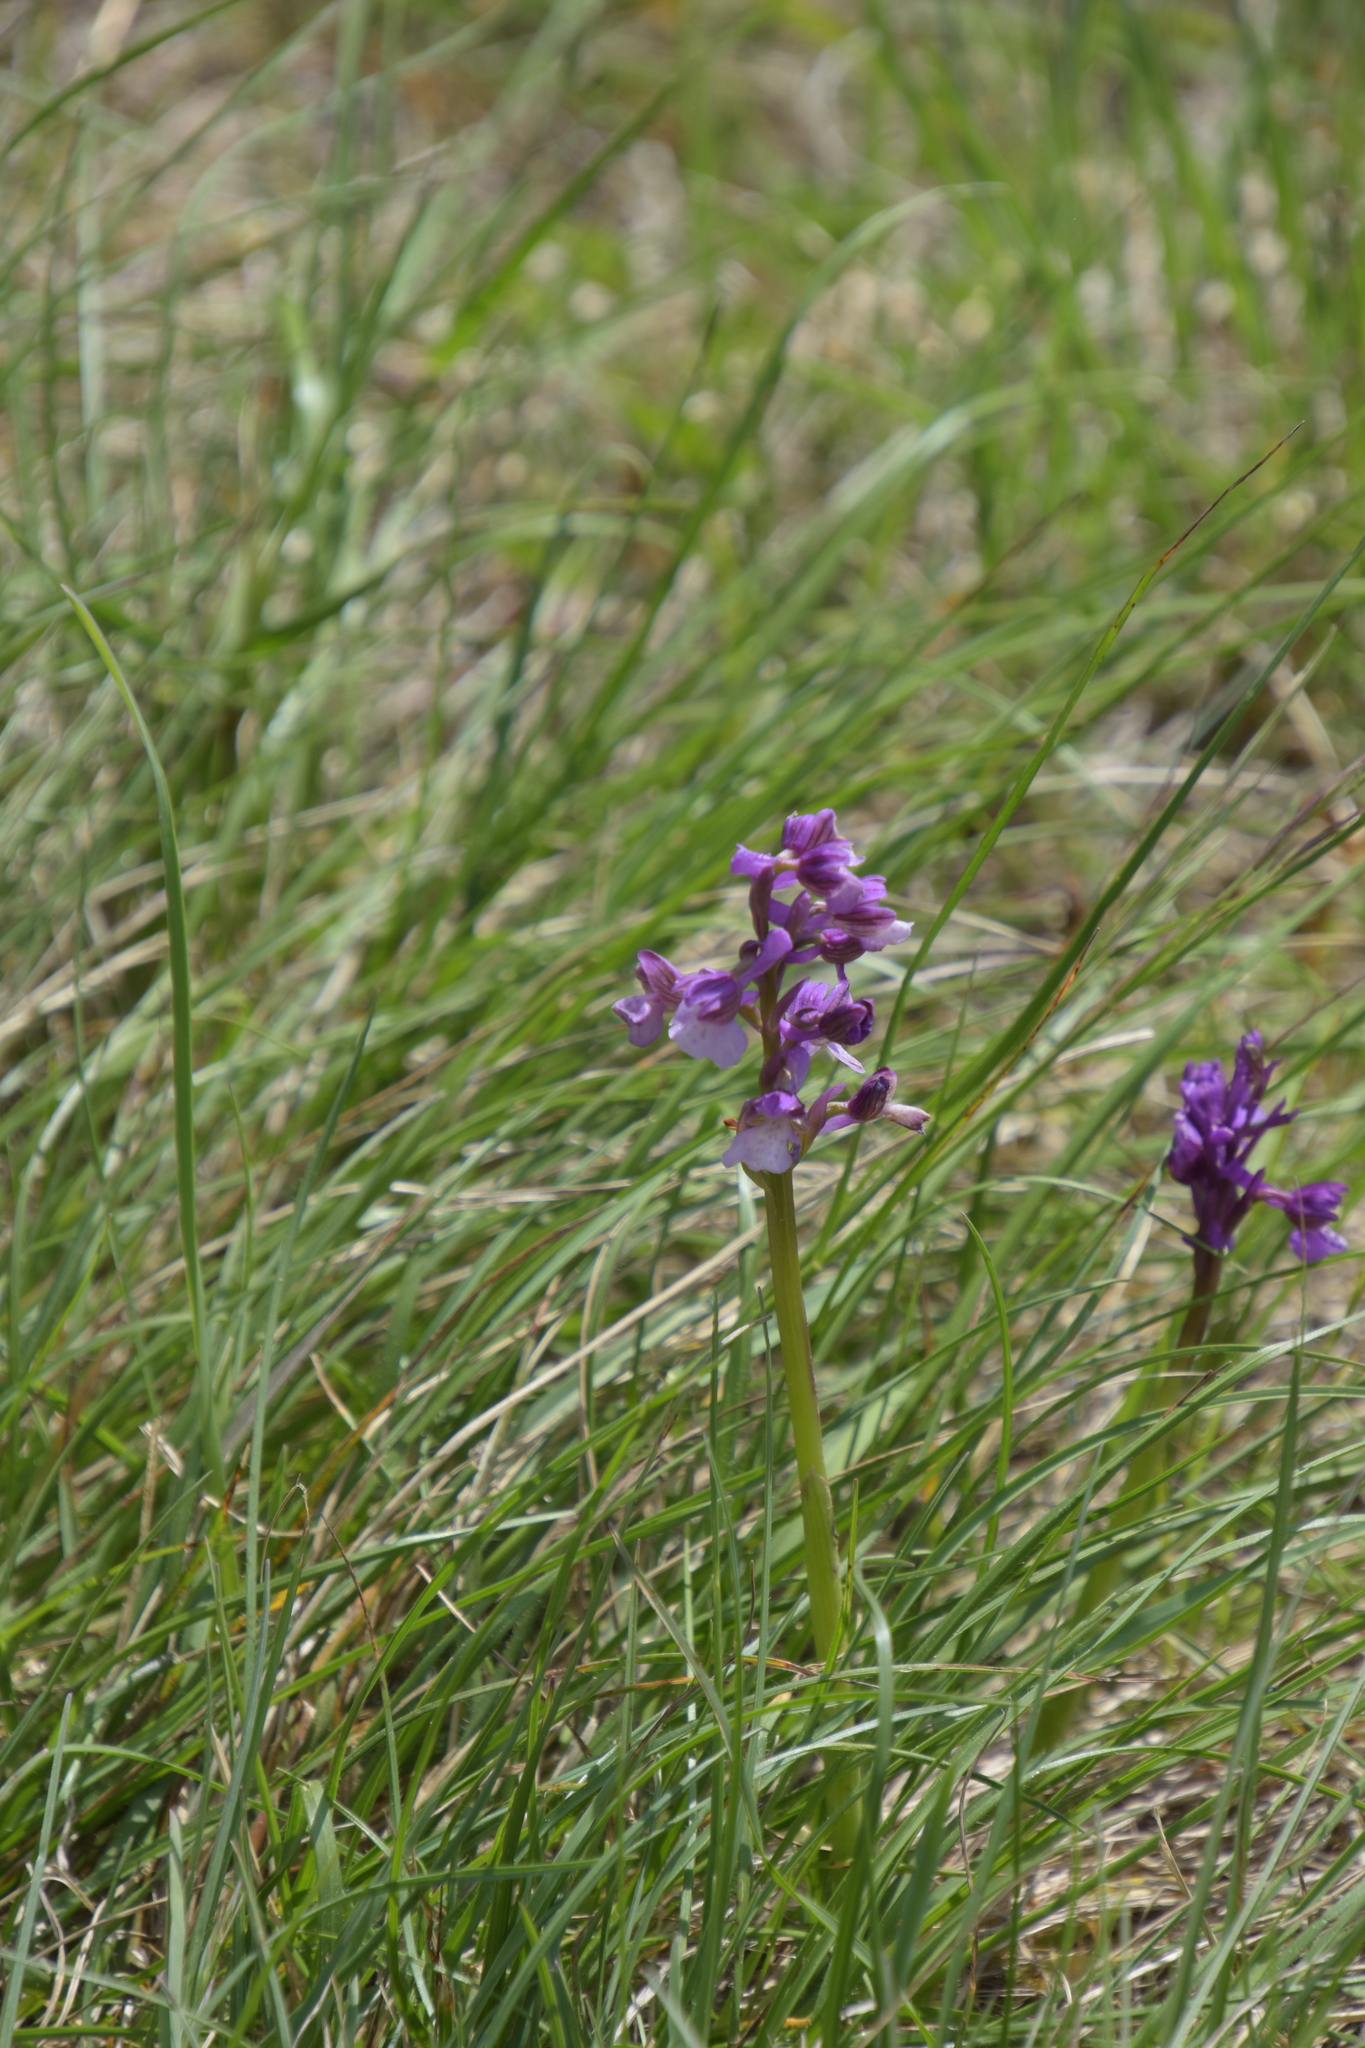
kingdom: Plantae
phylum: Tracheophyta
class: Liliopsida
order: Asparagales
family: Orchidaceae
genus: Anacamptis
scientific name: Anacamptis morio
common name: Green-winged orchid
